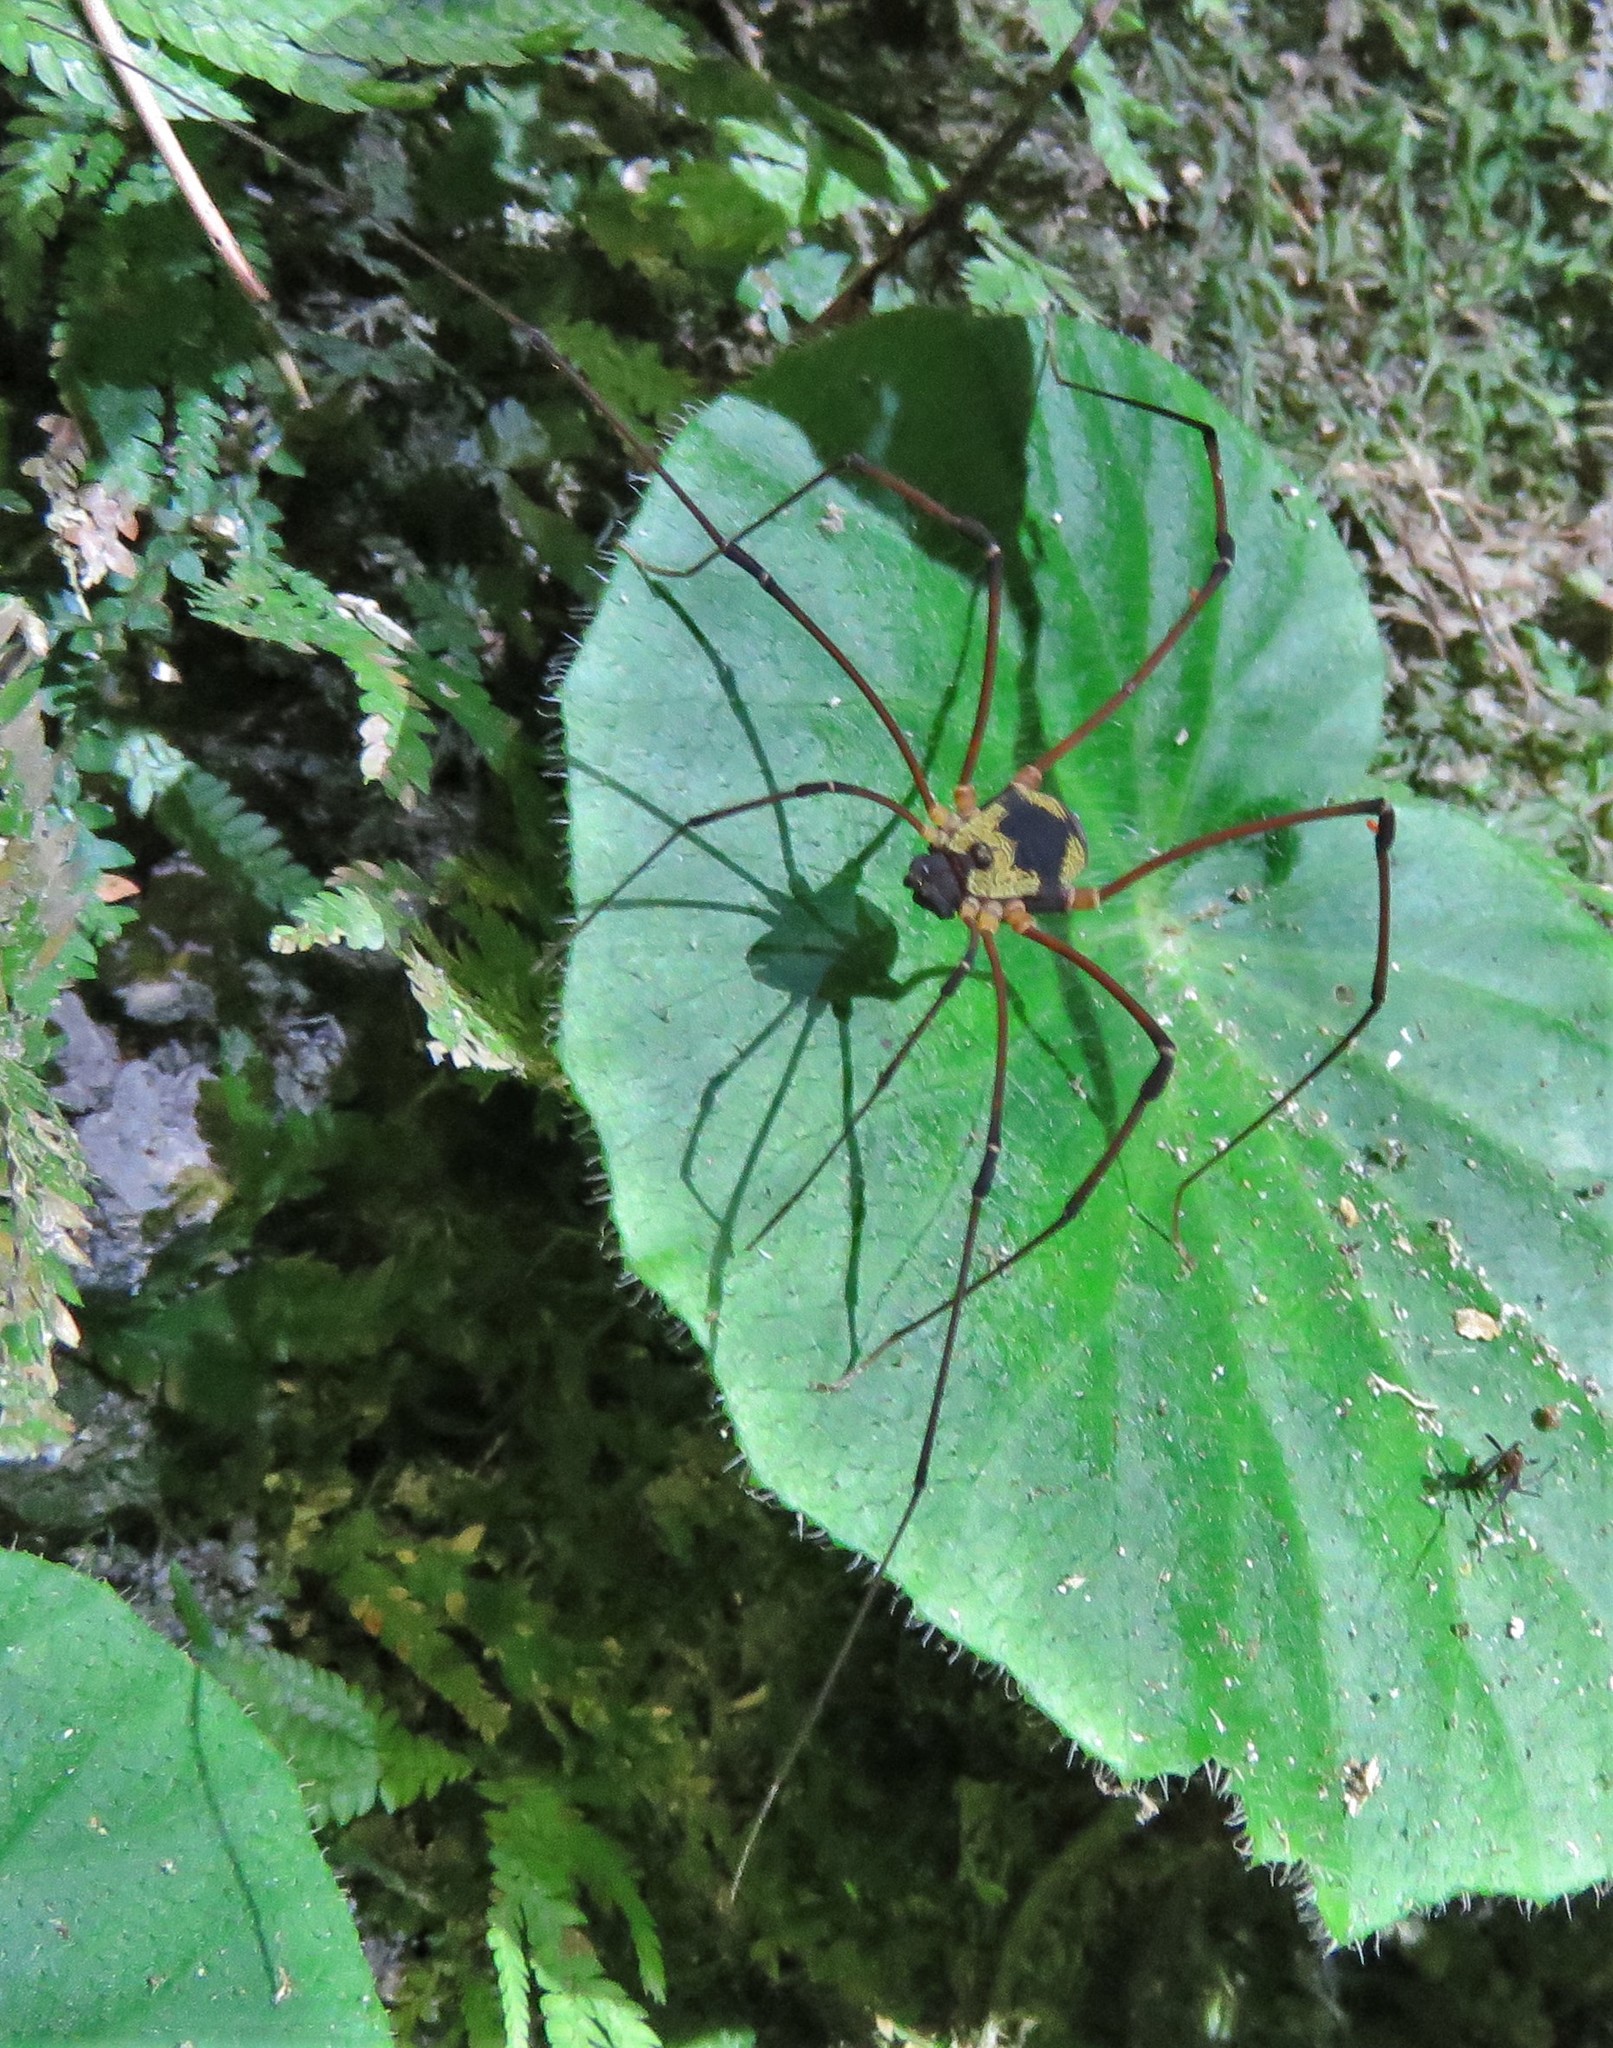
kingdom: Animalia
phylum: Arthropoda
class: Arachnida
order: Opiliones
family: Cosmetidae
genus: Eupoecilaema
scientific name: Eupoecilaema panamaense
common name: Harvestmen
